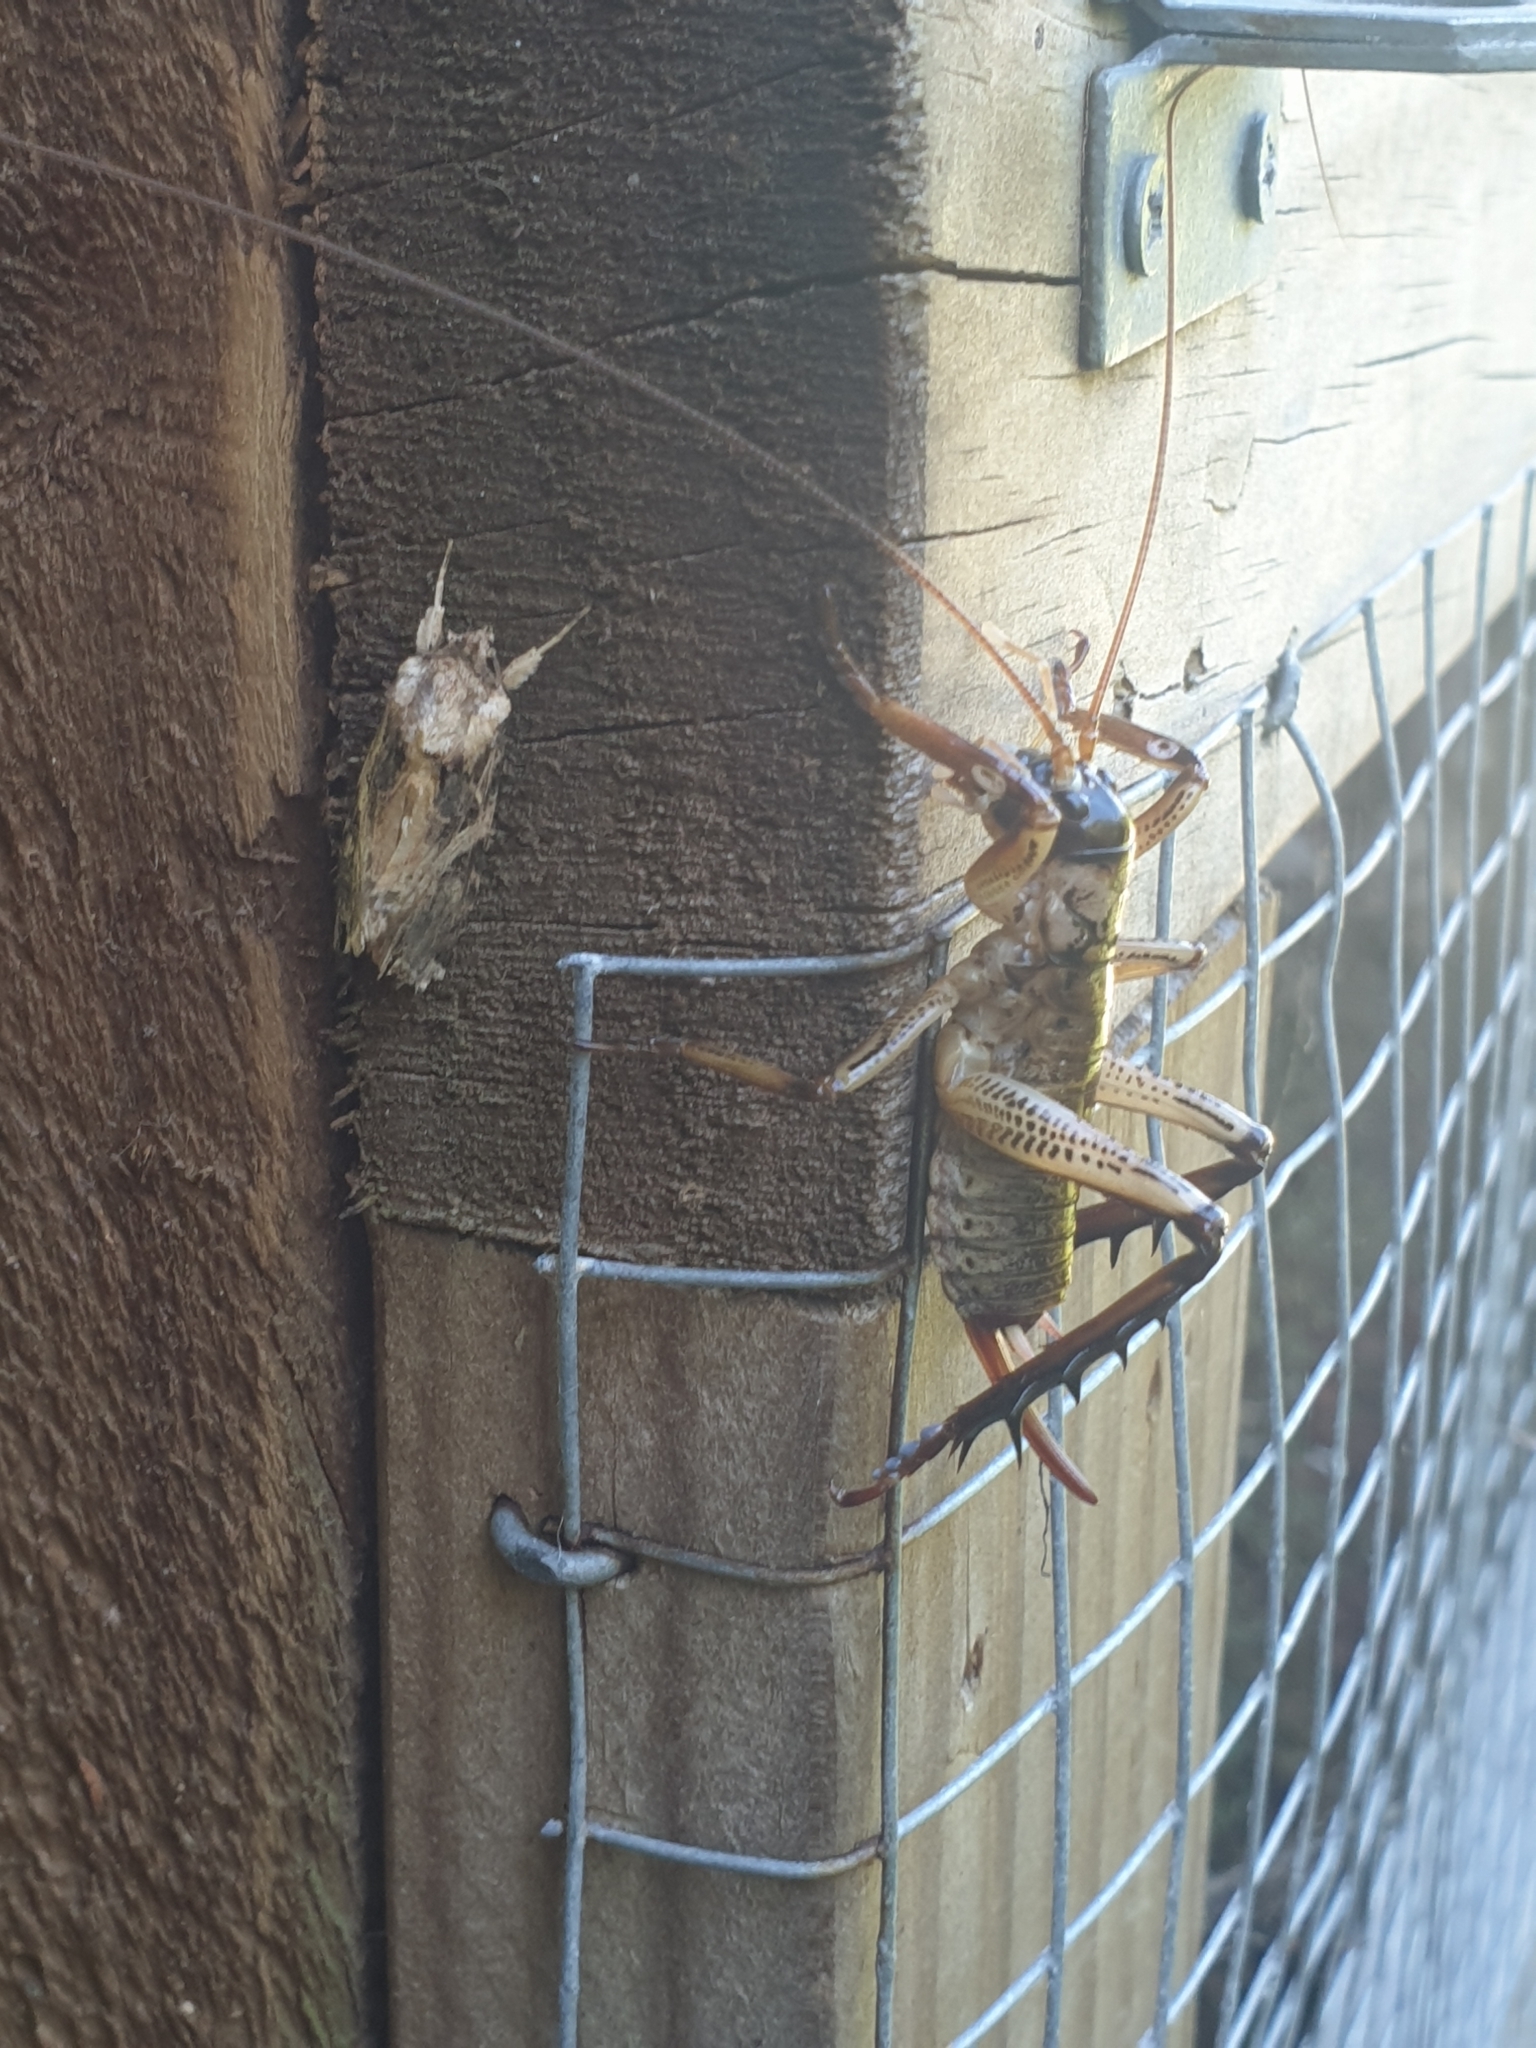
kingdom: Animalia
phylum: Arthropoda
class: Insecta
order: Lepidoptera
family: Noctuidae
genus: Spodoptera
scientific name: Spodoptera litura
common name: Asian cotton leafworm
